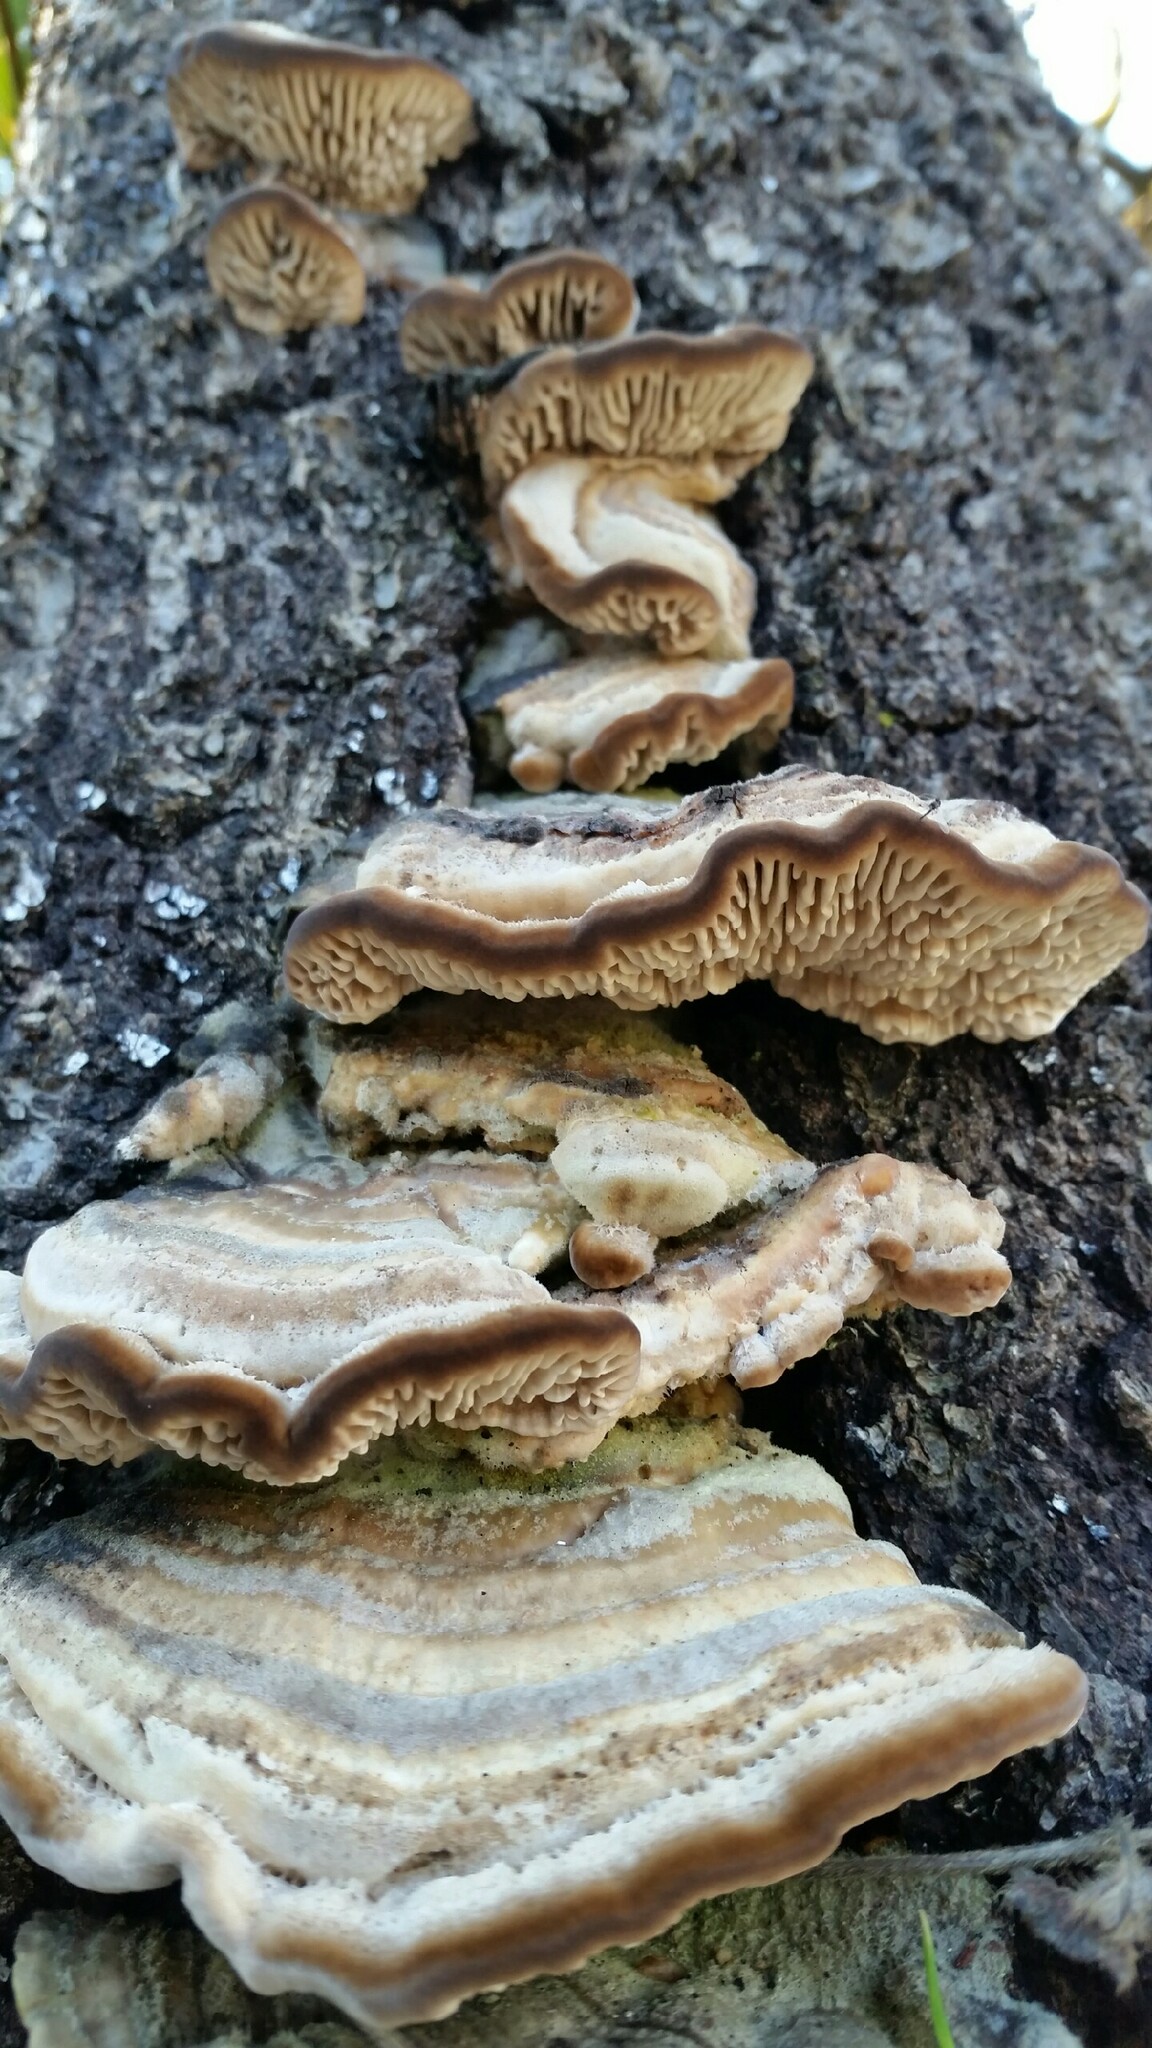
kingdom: Fungi
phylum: Basidiomycota
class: Agaricomycetes
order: Polyporales
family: Polyporaceae
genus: Lenzites
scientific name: Lenzites betulinus
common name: Birch mazegill
